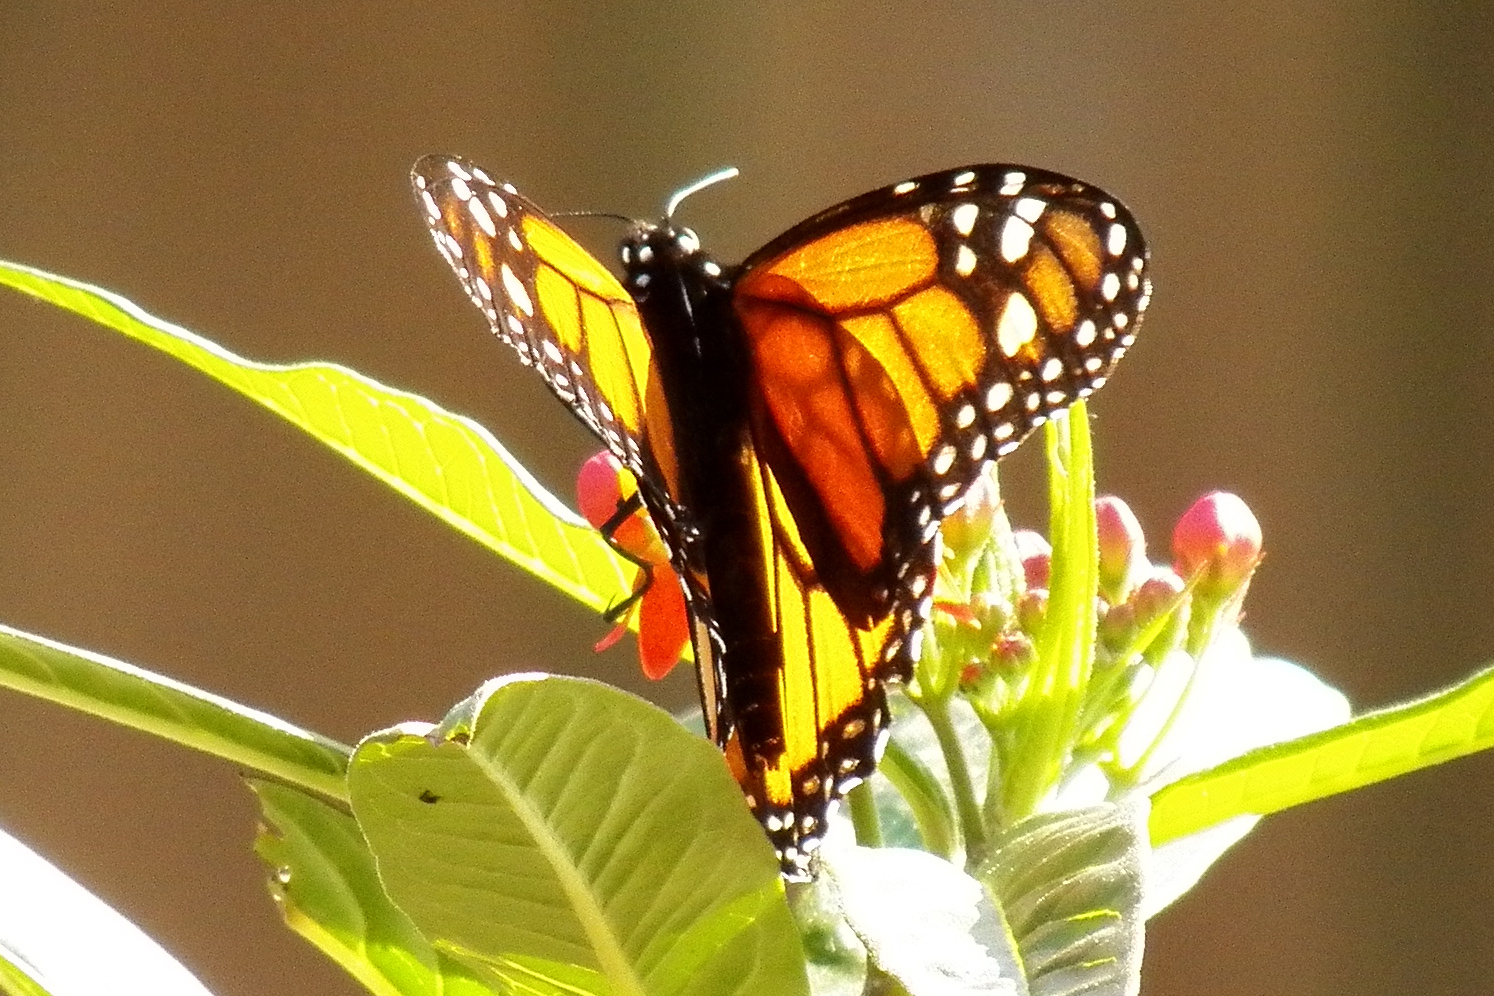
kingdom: Animalia
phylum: Arthropoda
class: Insecta
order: Lepidoptera
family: Nymphalidae
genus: Danaus
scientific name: Danaus plexippus
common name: Monarch
